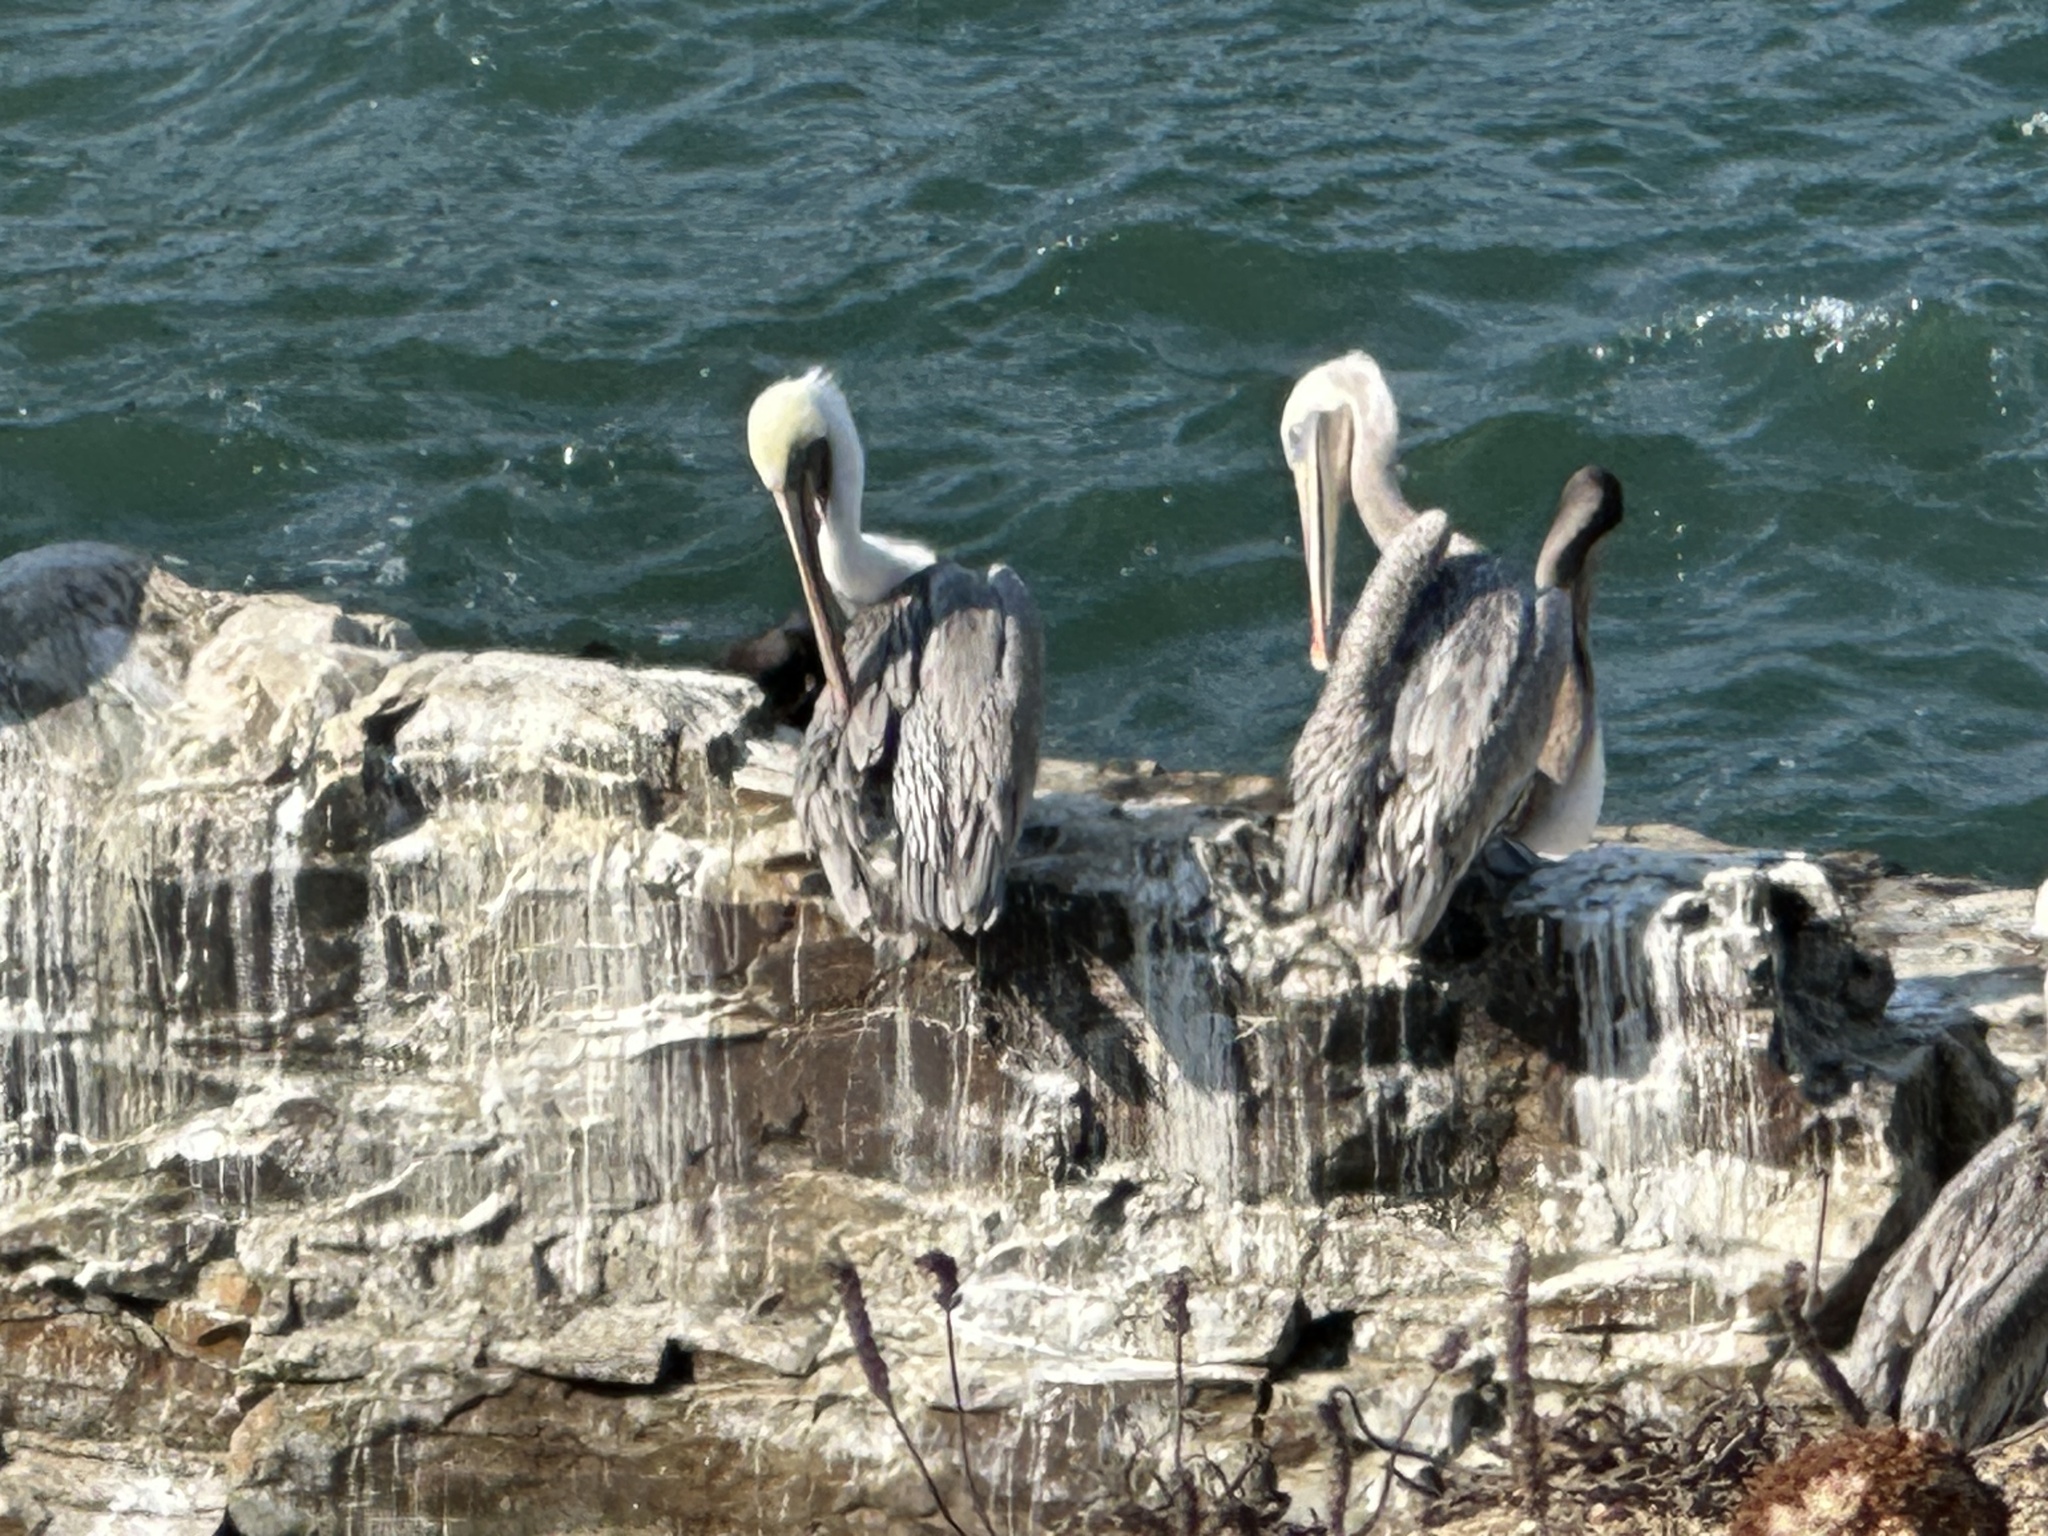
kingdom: Animalia
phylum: Chordata
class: Aves
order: Pelecaniformes
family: Pelecanidae
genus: Pelecanus
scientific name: Pelecanus occidentalis
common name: Brown pelican
